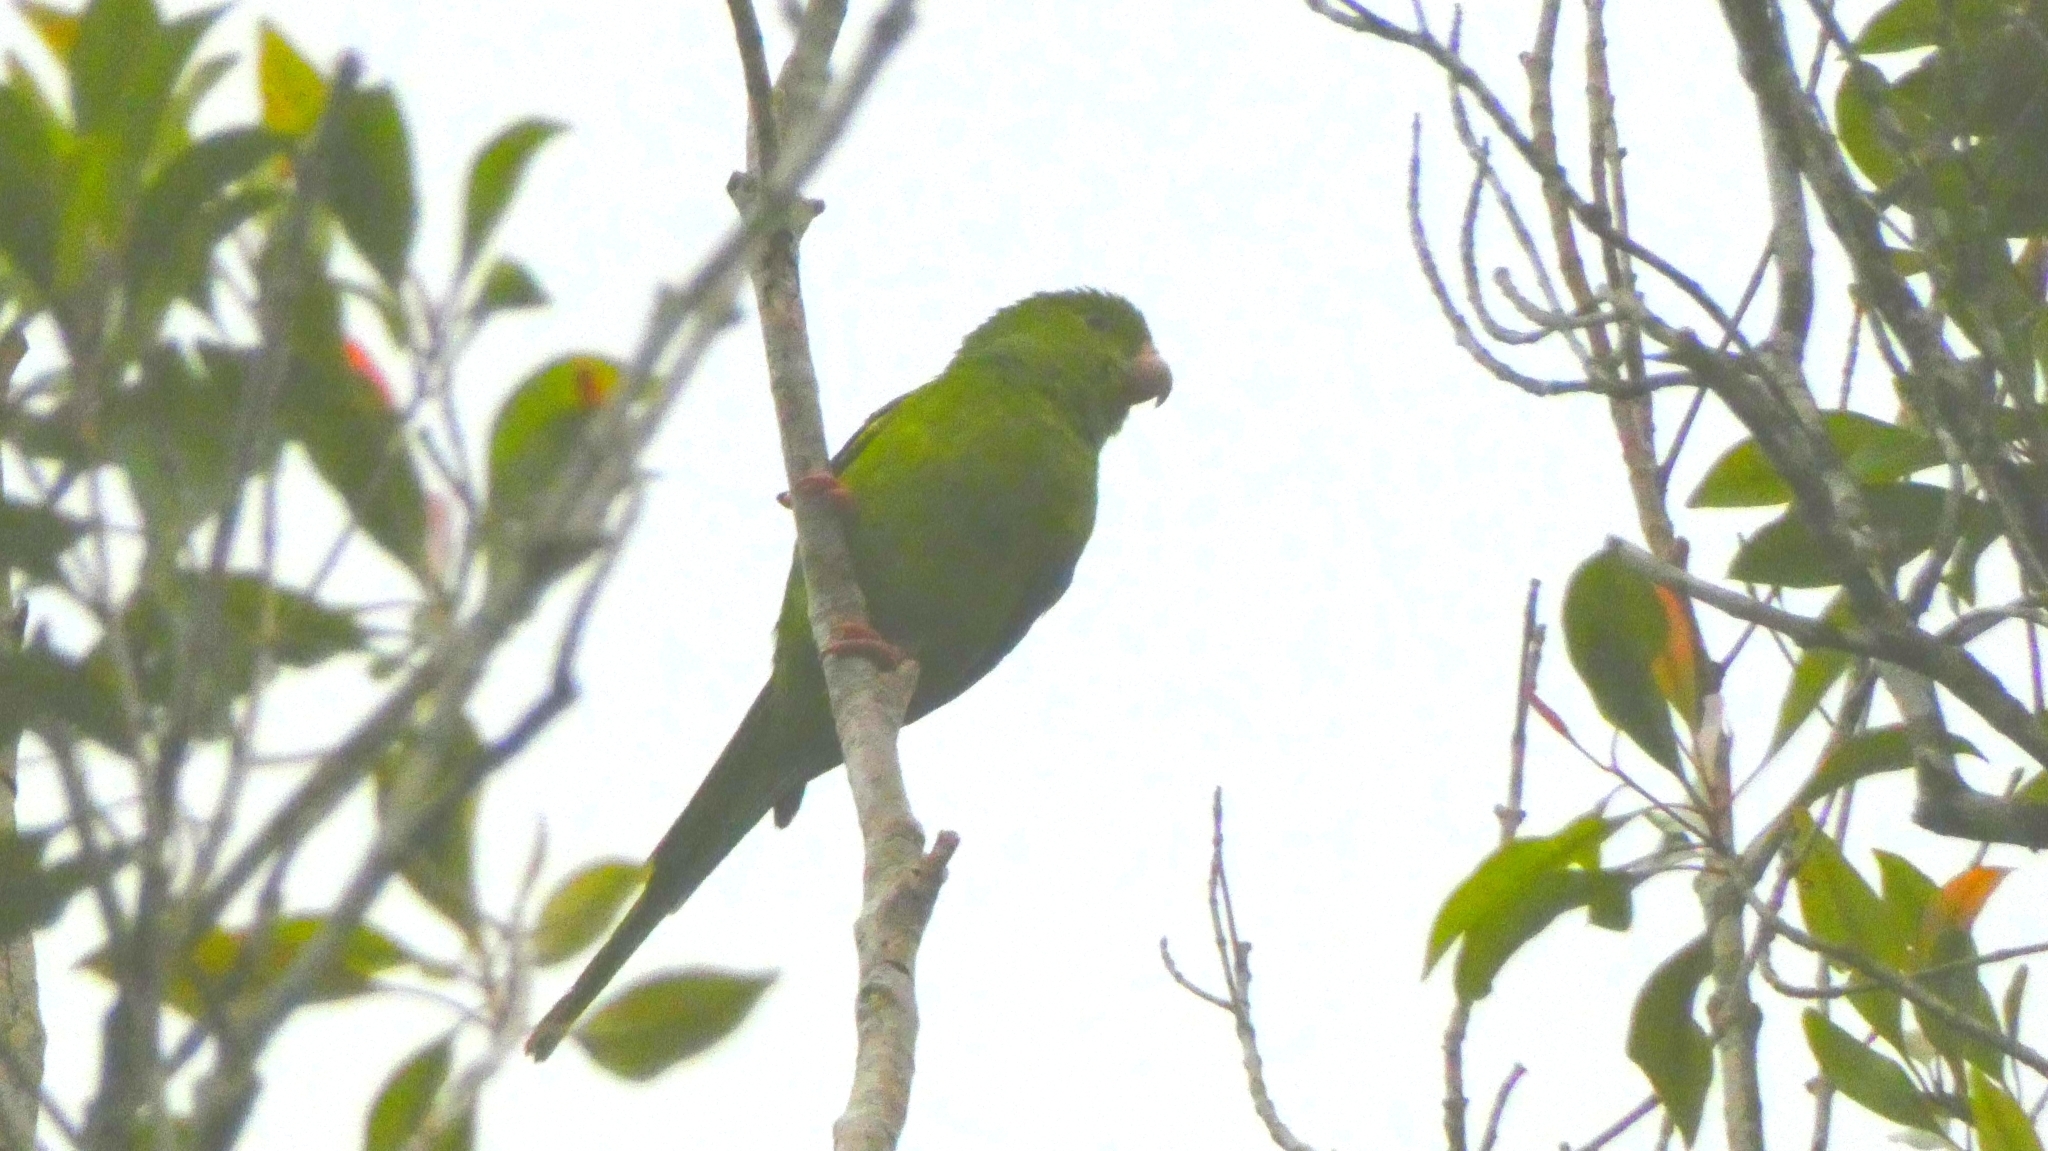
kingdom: Animalia
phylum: Chordata
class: Aves
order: Psittaciformes
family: Psittacidae
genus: Brotogeris
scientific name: Brotogeris tirica
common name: Plain parakeet
